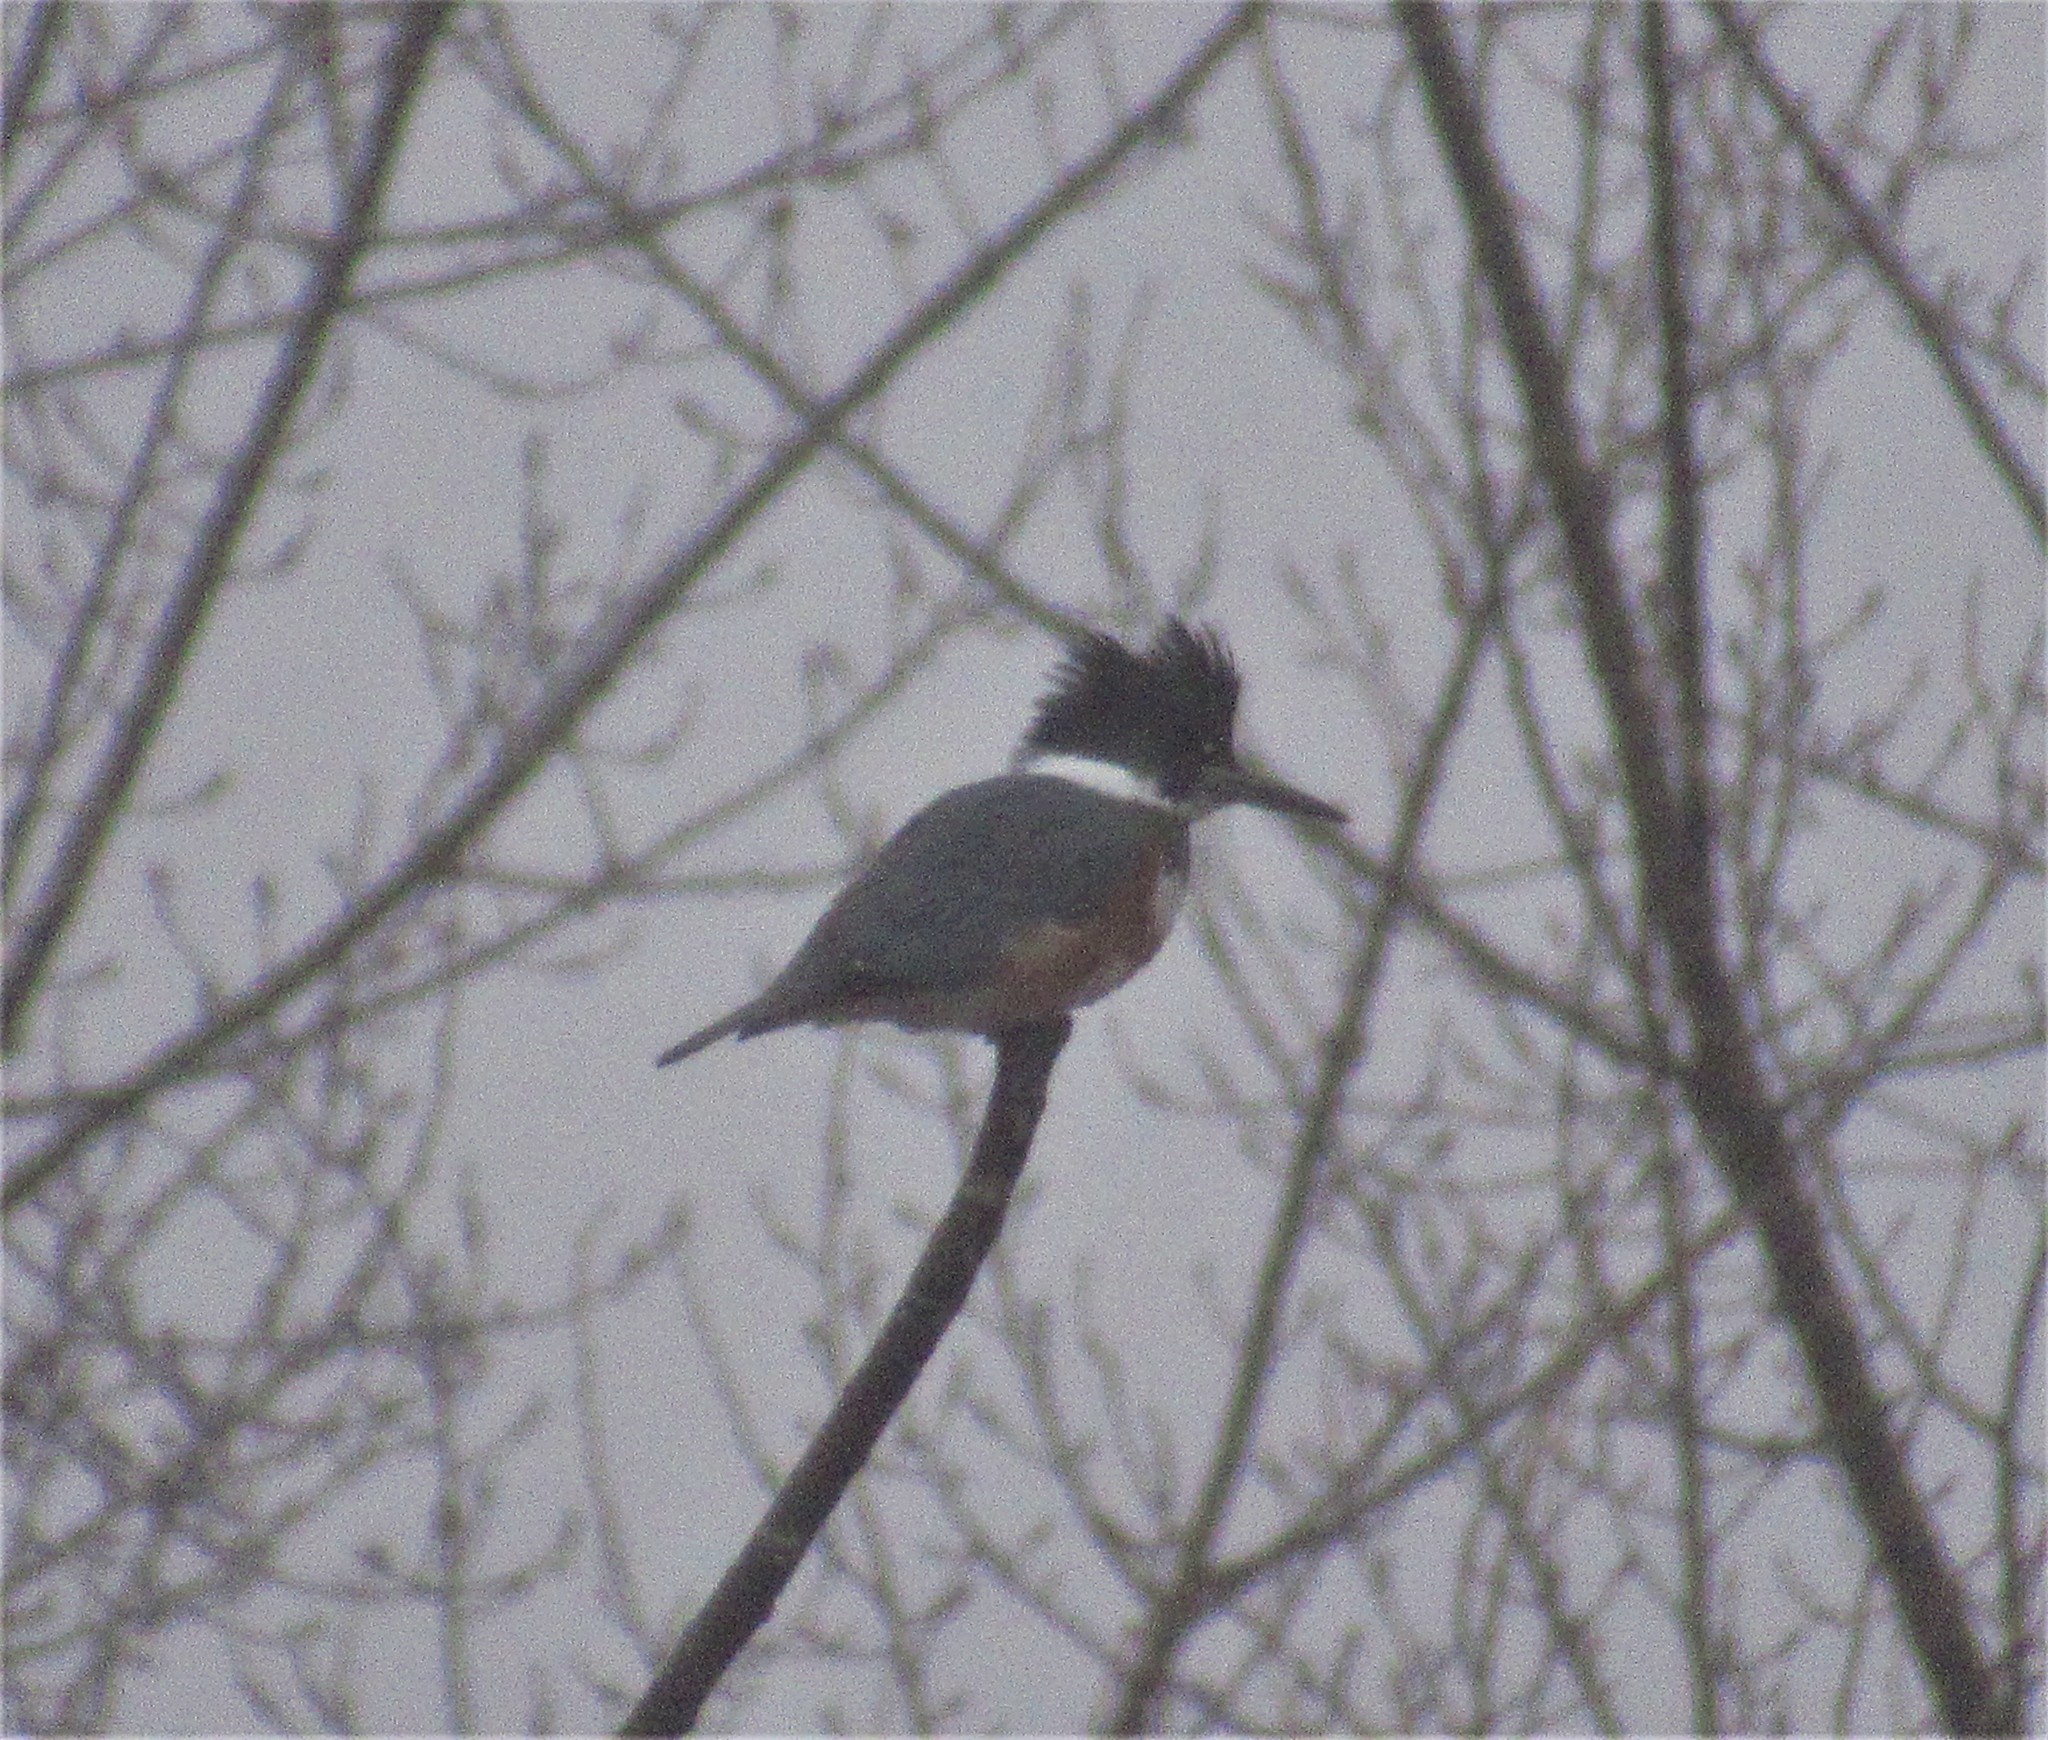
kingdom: Animalia
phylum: Chordata
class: Aves
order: Coraciiformes
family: Alcedinidae
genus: Megaceryle
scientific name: Megaceryle alcyon
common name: Belted kingfisher
